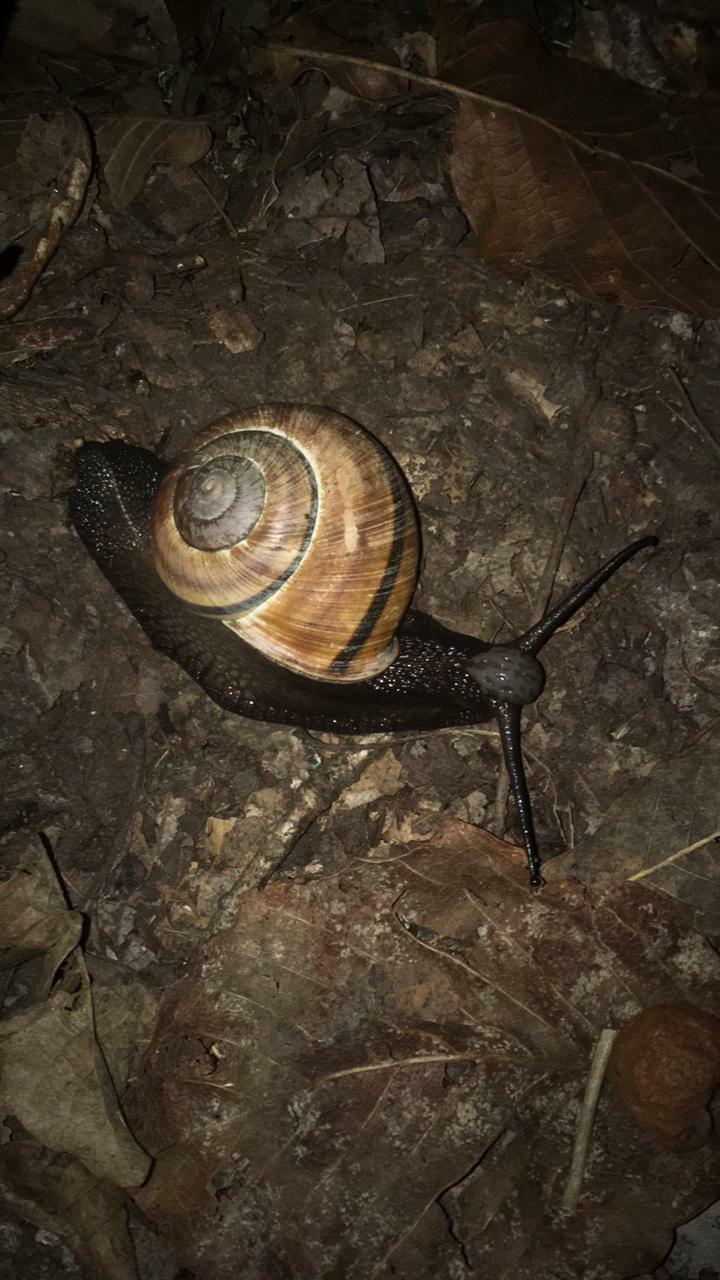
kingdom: Animalia
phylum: Mollusca
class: Gastropoda
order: Stylommatophora
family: Xanthonychidae
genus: Lysinoe
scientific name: Lysinoe ghiesbreghti
